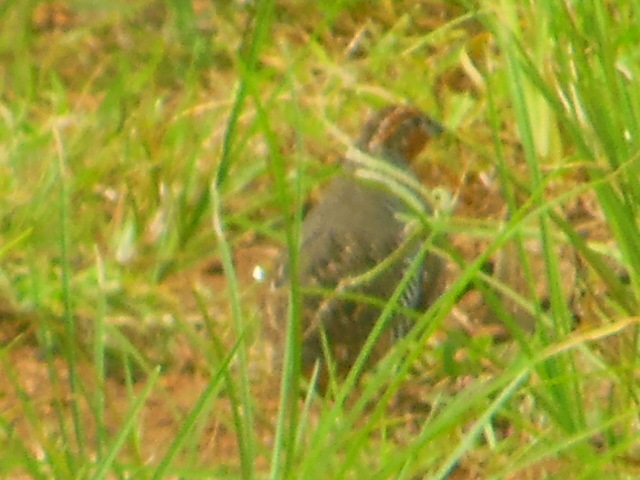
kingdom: Animalia
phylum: Chordata
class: Aves
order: Galliformes
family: Phasianidae
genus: Perdicula
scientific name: Perdicula asiatica
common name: Jungle bush quail
